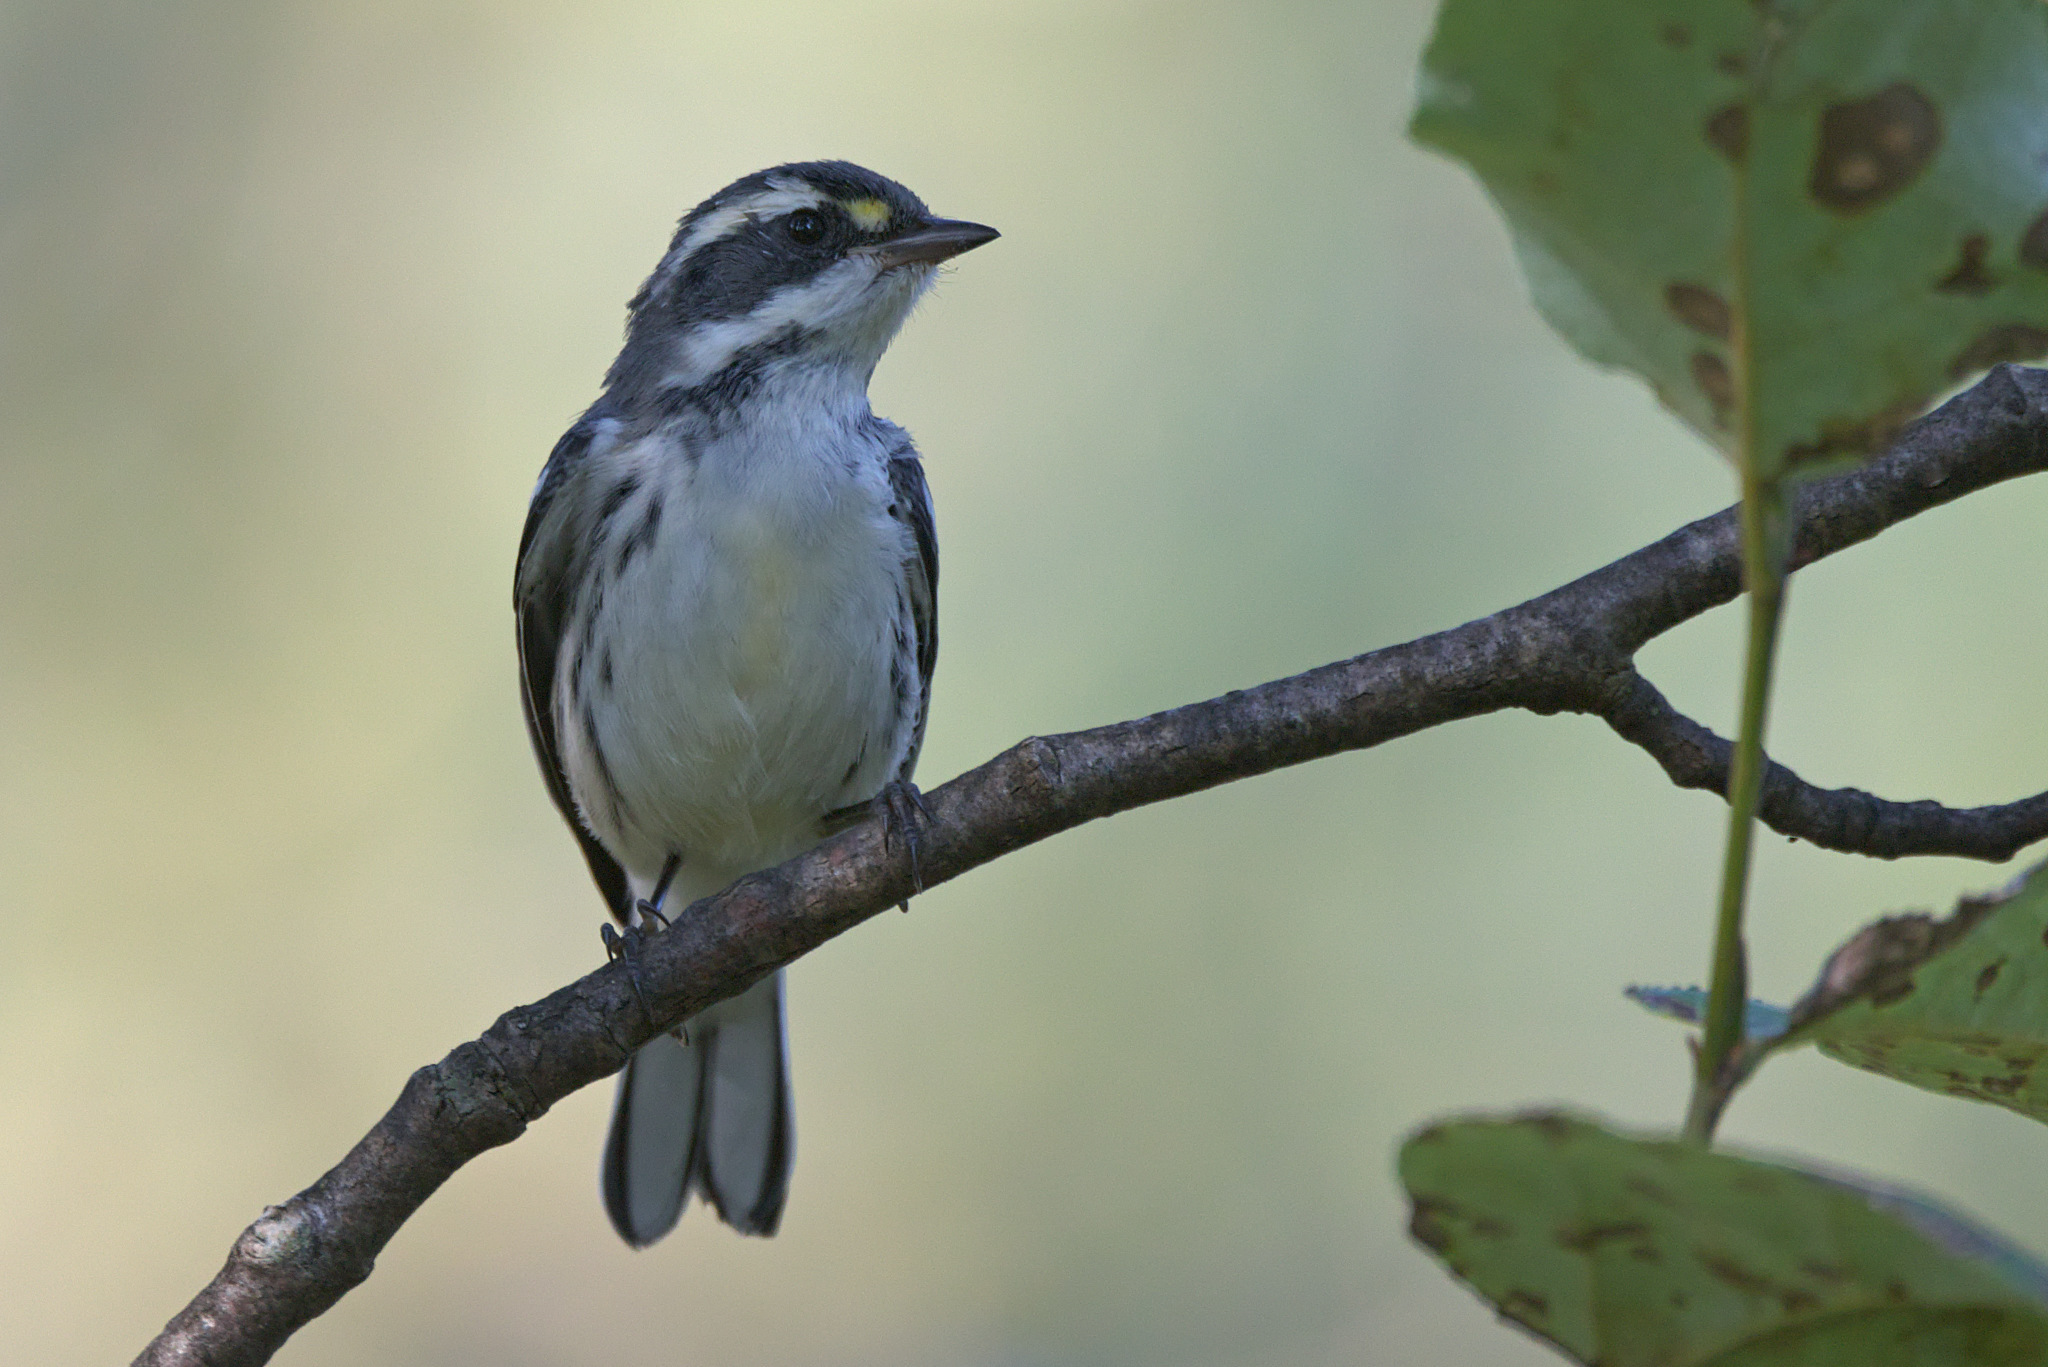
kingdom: Animalia
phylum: Chordata
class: Aves
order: Passeriformes
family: Parulidae
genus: Setophaga
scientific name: Setophaga nigrescens
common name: Black-throated gray warbler
